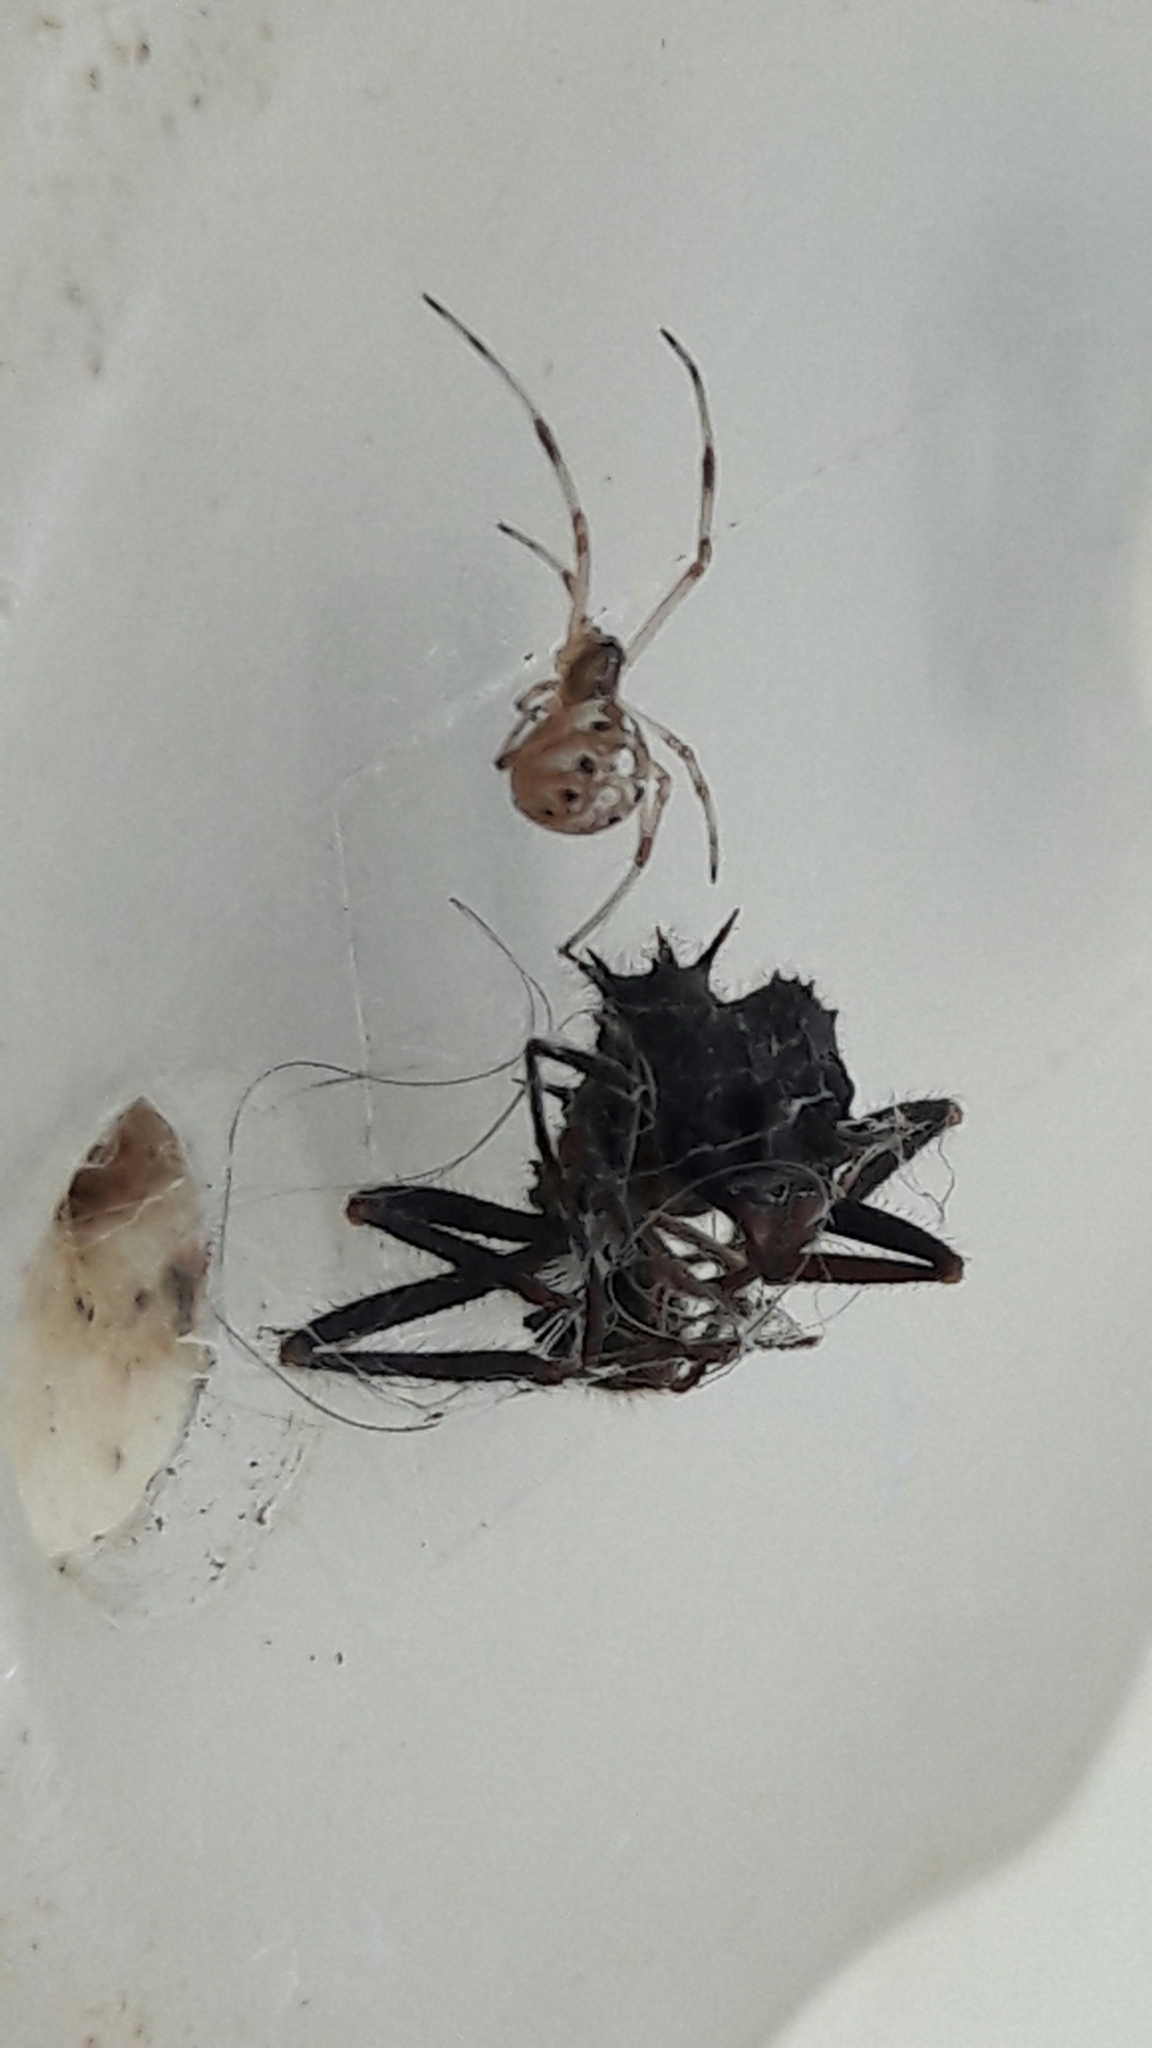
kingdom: Animalia
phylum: Arthropoda
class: Arachnida
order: Araneae
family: Theridiidae
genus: Latrodectus
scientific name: Latrodectus geometricus
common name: Brown widow spider
